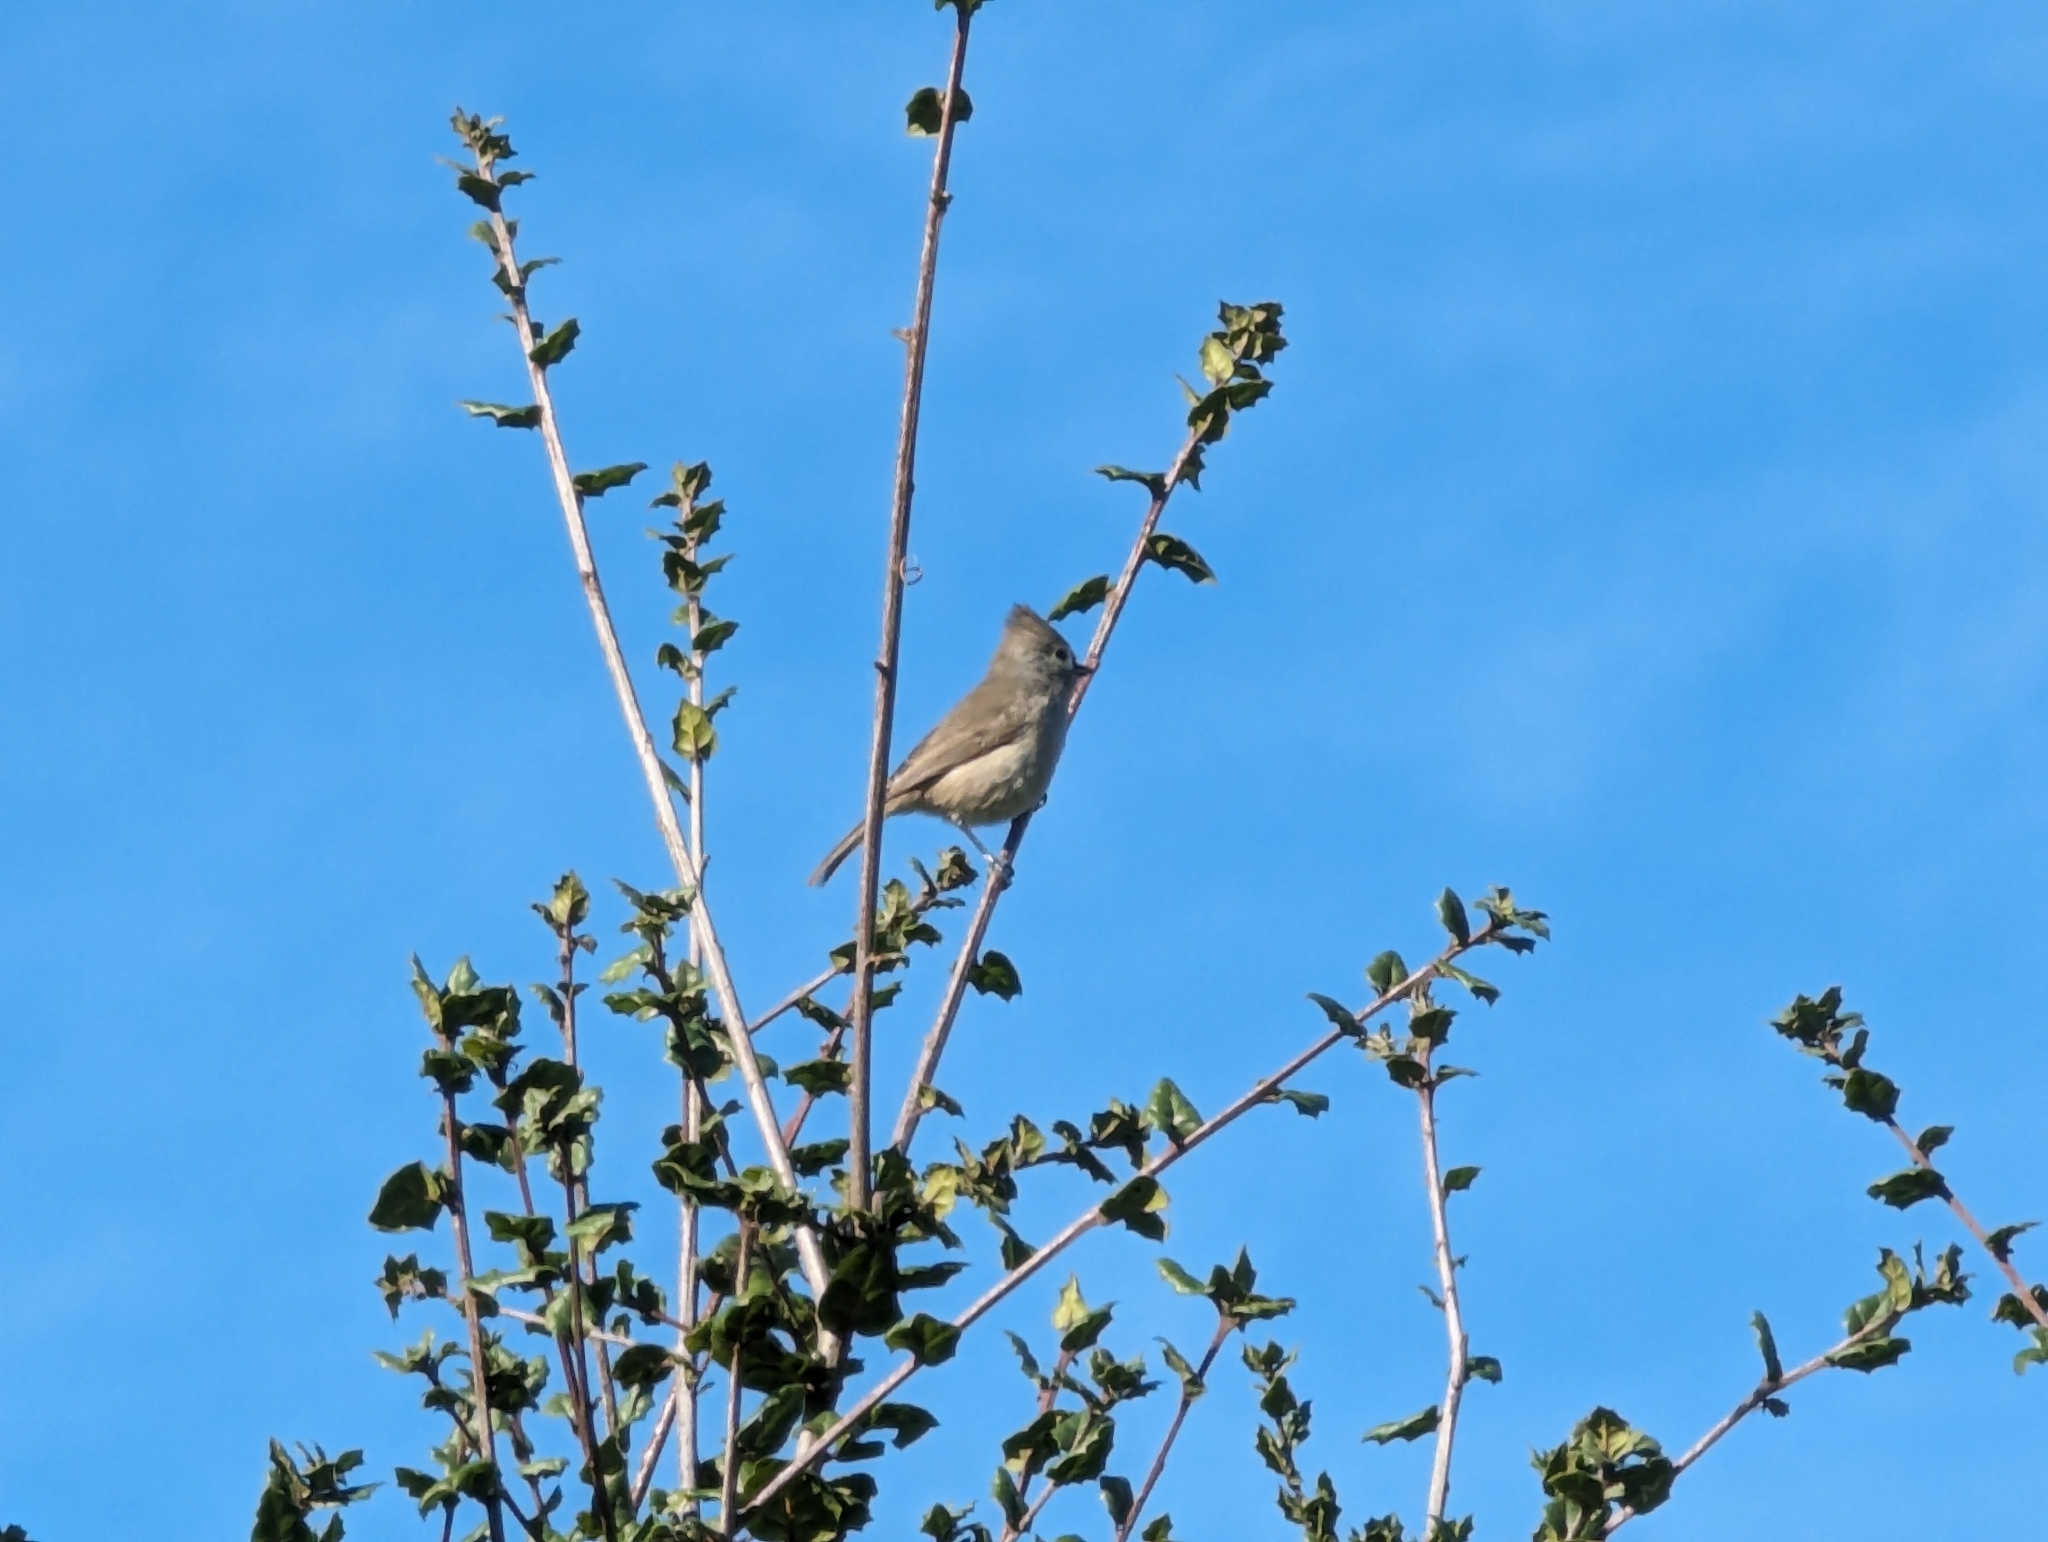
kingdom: Animalia
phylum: Chordata
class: Aves
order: Passeriformes
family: Paridae
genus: Baeolophus
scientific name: Baeolophus inornatus
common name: Oak titmouse
